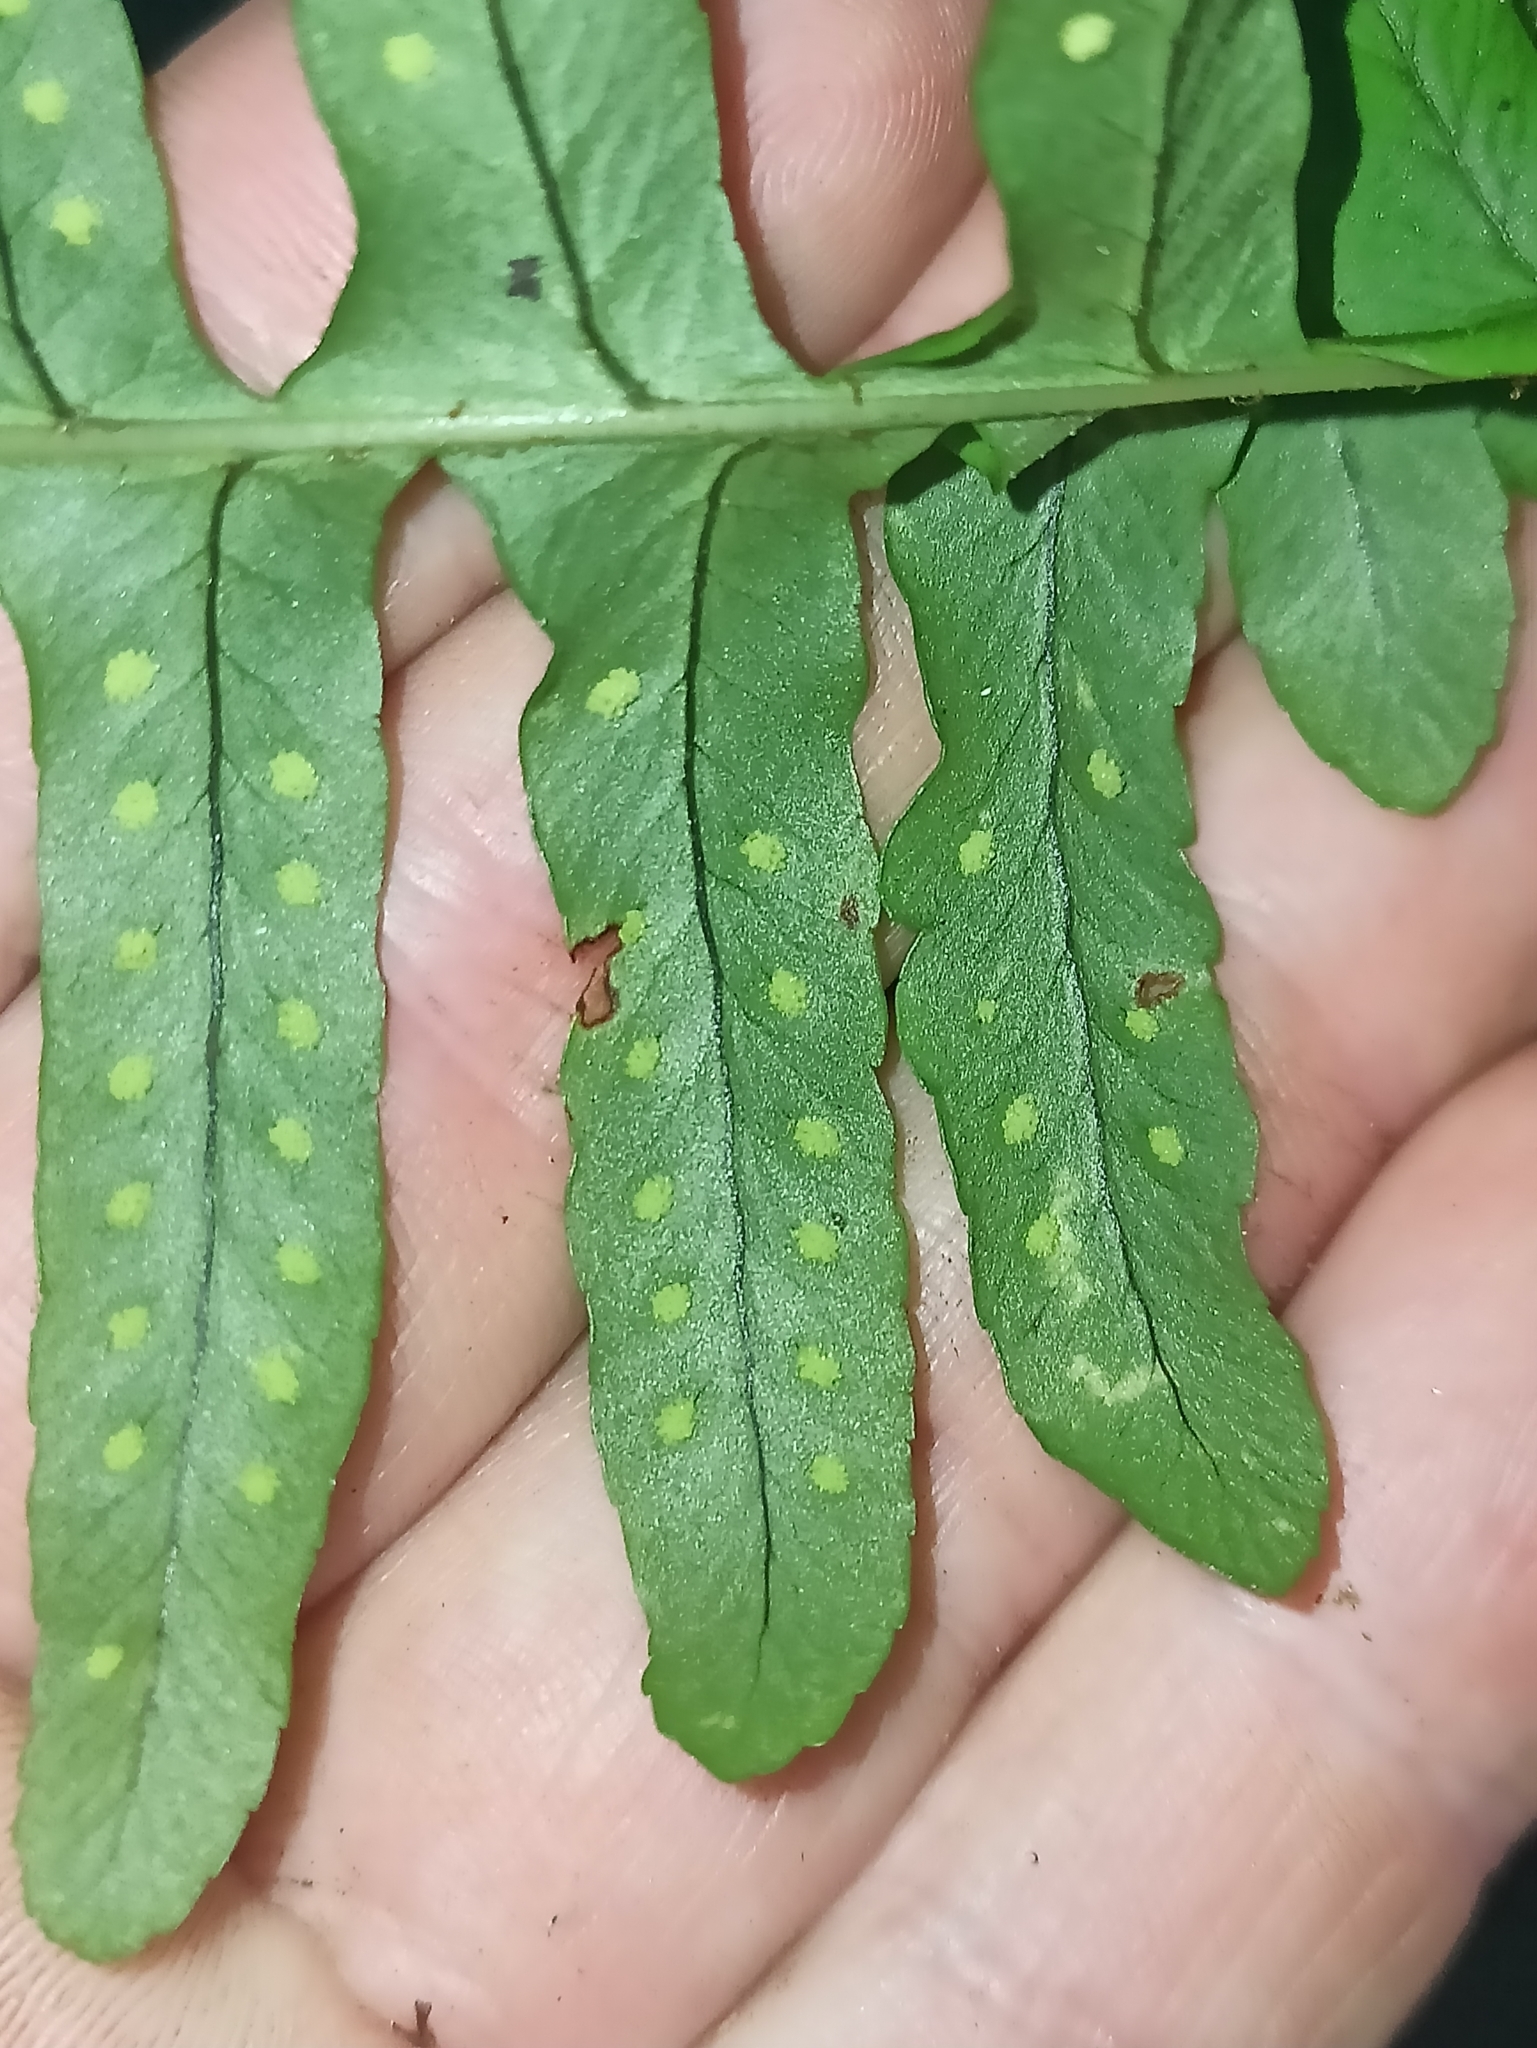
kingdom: Plantae
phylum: Tracheophyta
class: Polypodiopsida
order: Polypodiales
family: Polypodiaceae
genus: Polypodium
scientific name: Polypodium vulgare
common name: Common polypody
